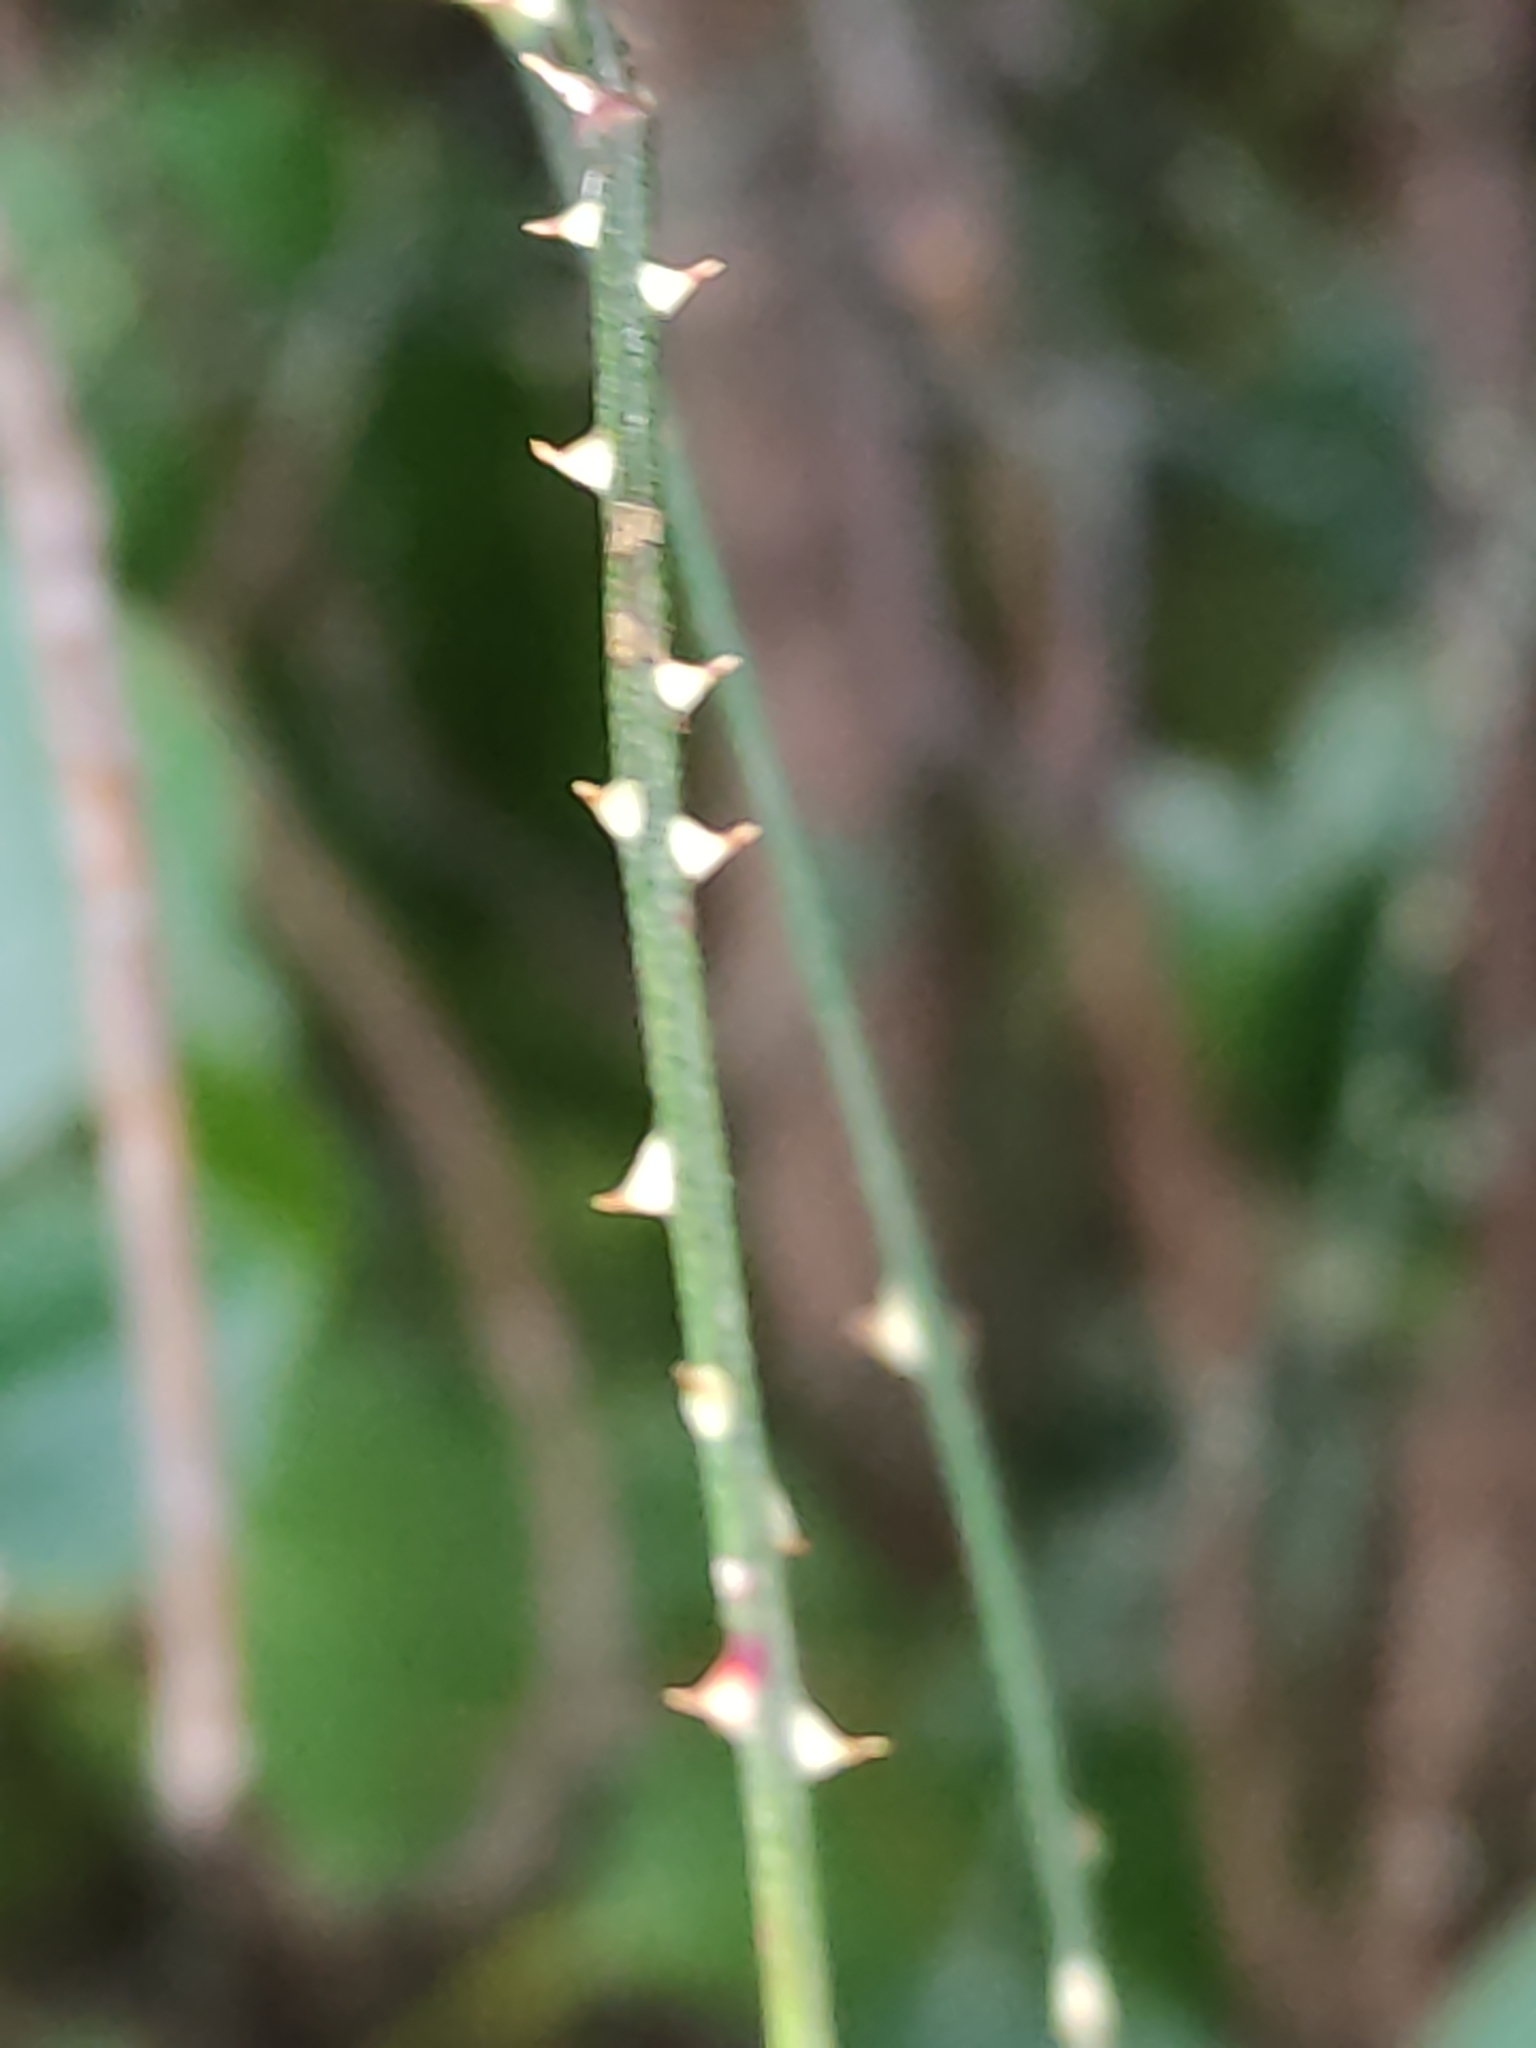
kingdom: Plantae
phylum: Tracheophyta
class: Magnoliopsida
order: Rosales
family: Rosaceae
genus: Rubus
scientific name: Rubus squarrosus
